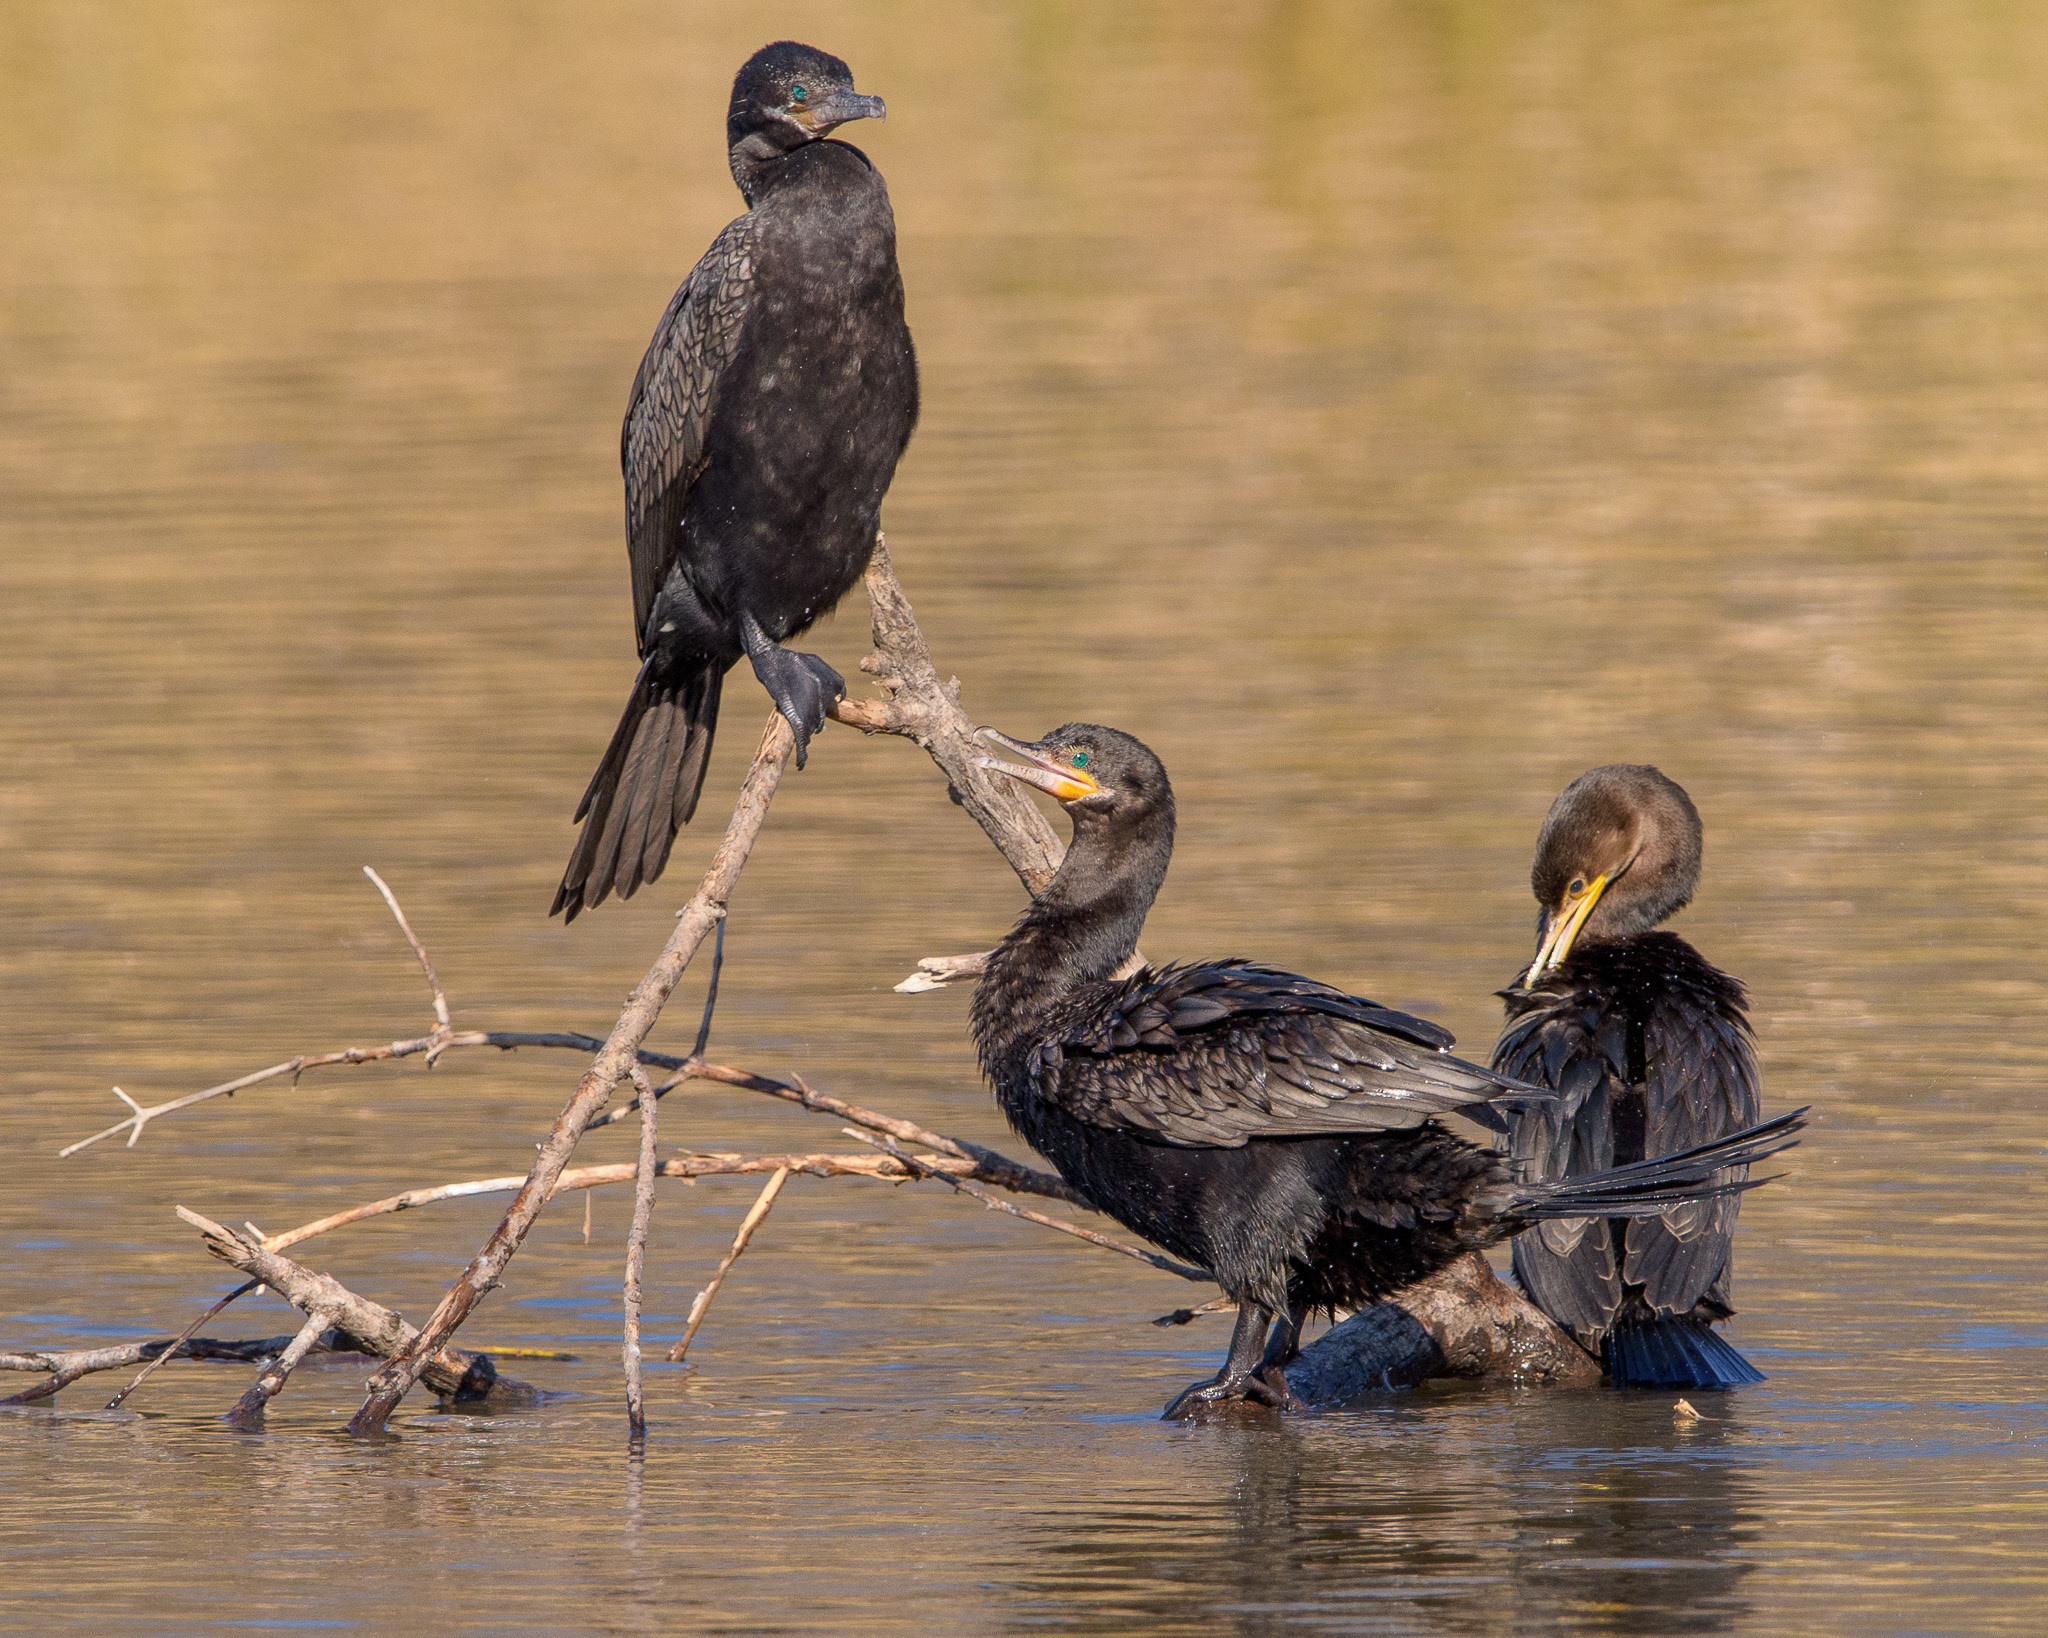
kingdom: Animalia
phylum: Chordata
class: Aves
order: Suliformes
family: Phalacrocoracidae
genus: Phalacrocorax
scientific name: Phalacrocorax brasilianus
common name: Neotropic cormorant
